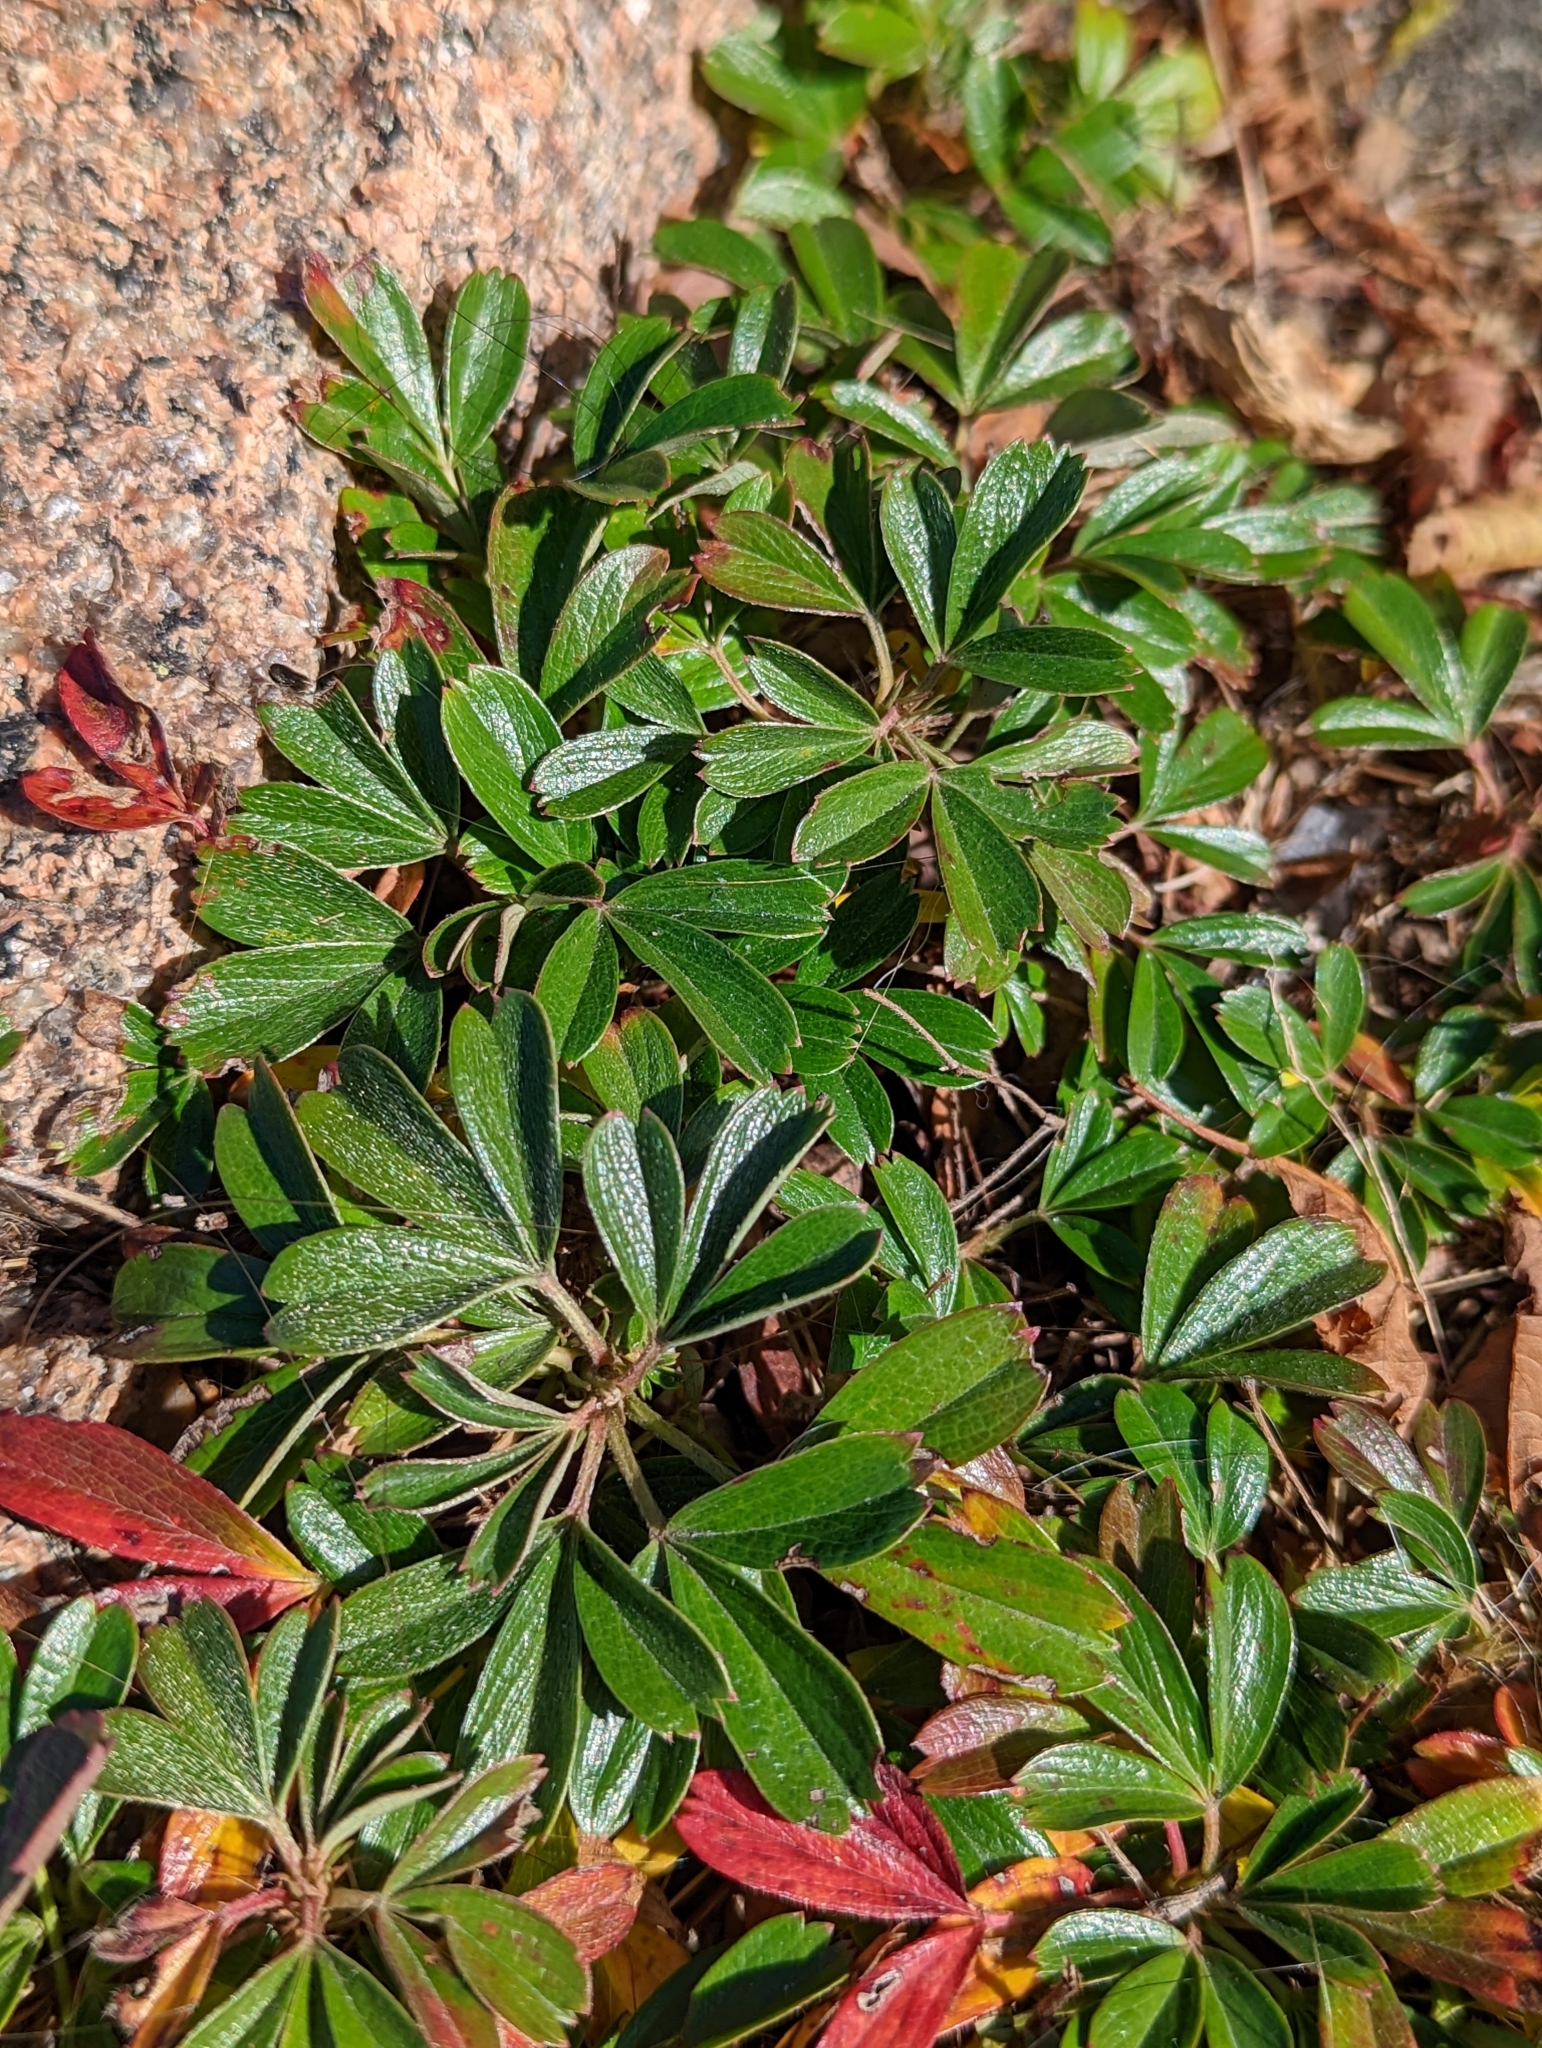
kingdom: Plantae
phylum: Tracheophyta
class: Magnoliopsida
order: Rosales
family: Rosaceae
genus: Sibbaldia
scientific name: Sibbaldia tridentata
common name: Three-toothed cinquefoil
